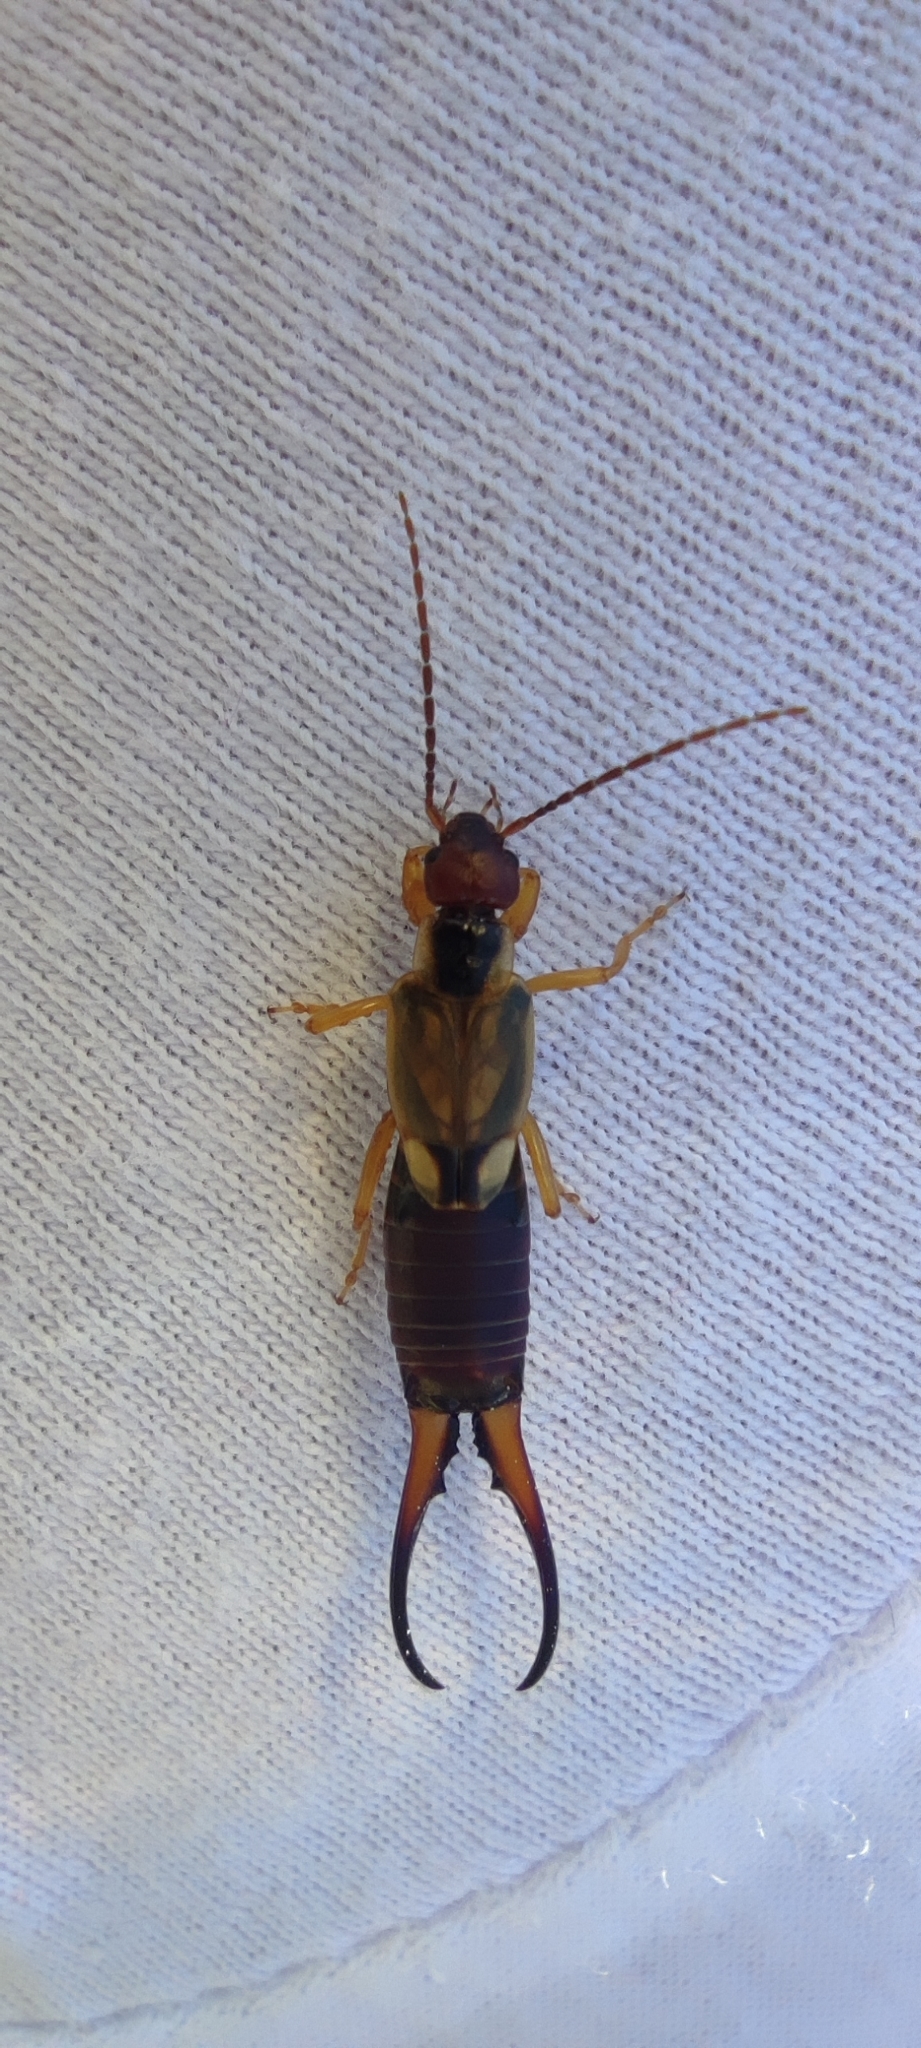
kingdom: Animalia
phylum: Arthropoda
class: Insecta
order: Dermaptera
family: Forficulidae
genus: Forficula
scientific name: Forficula
